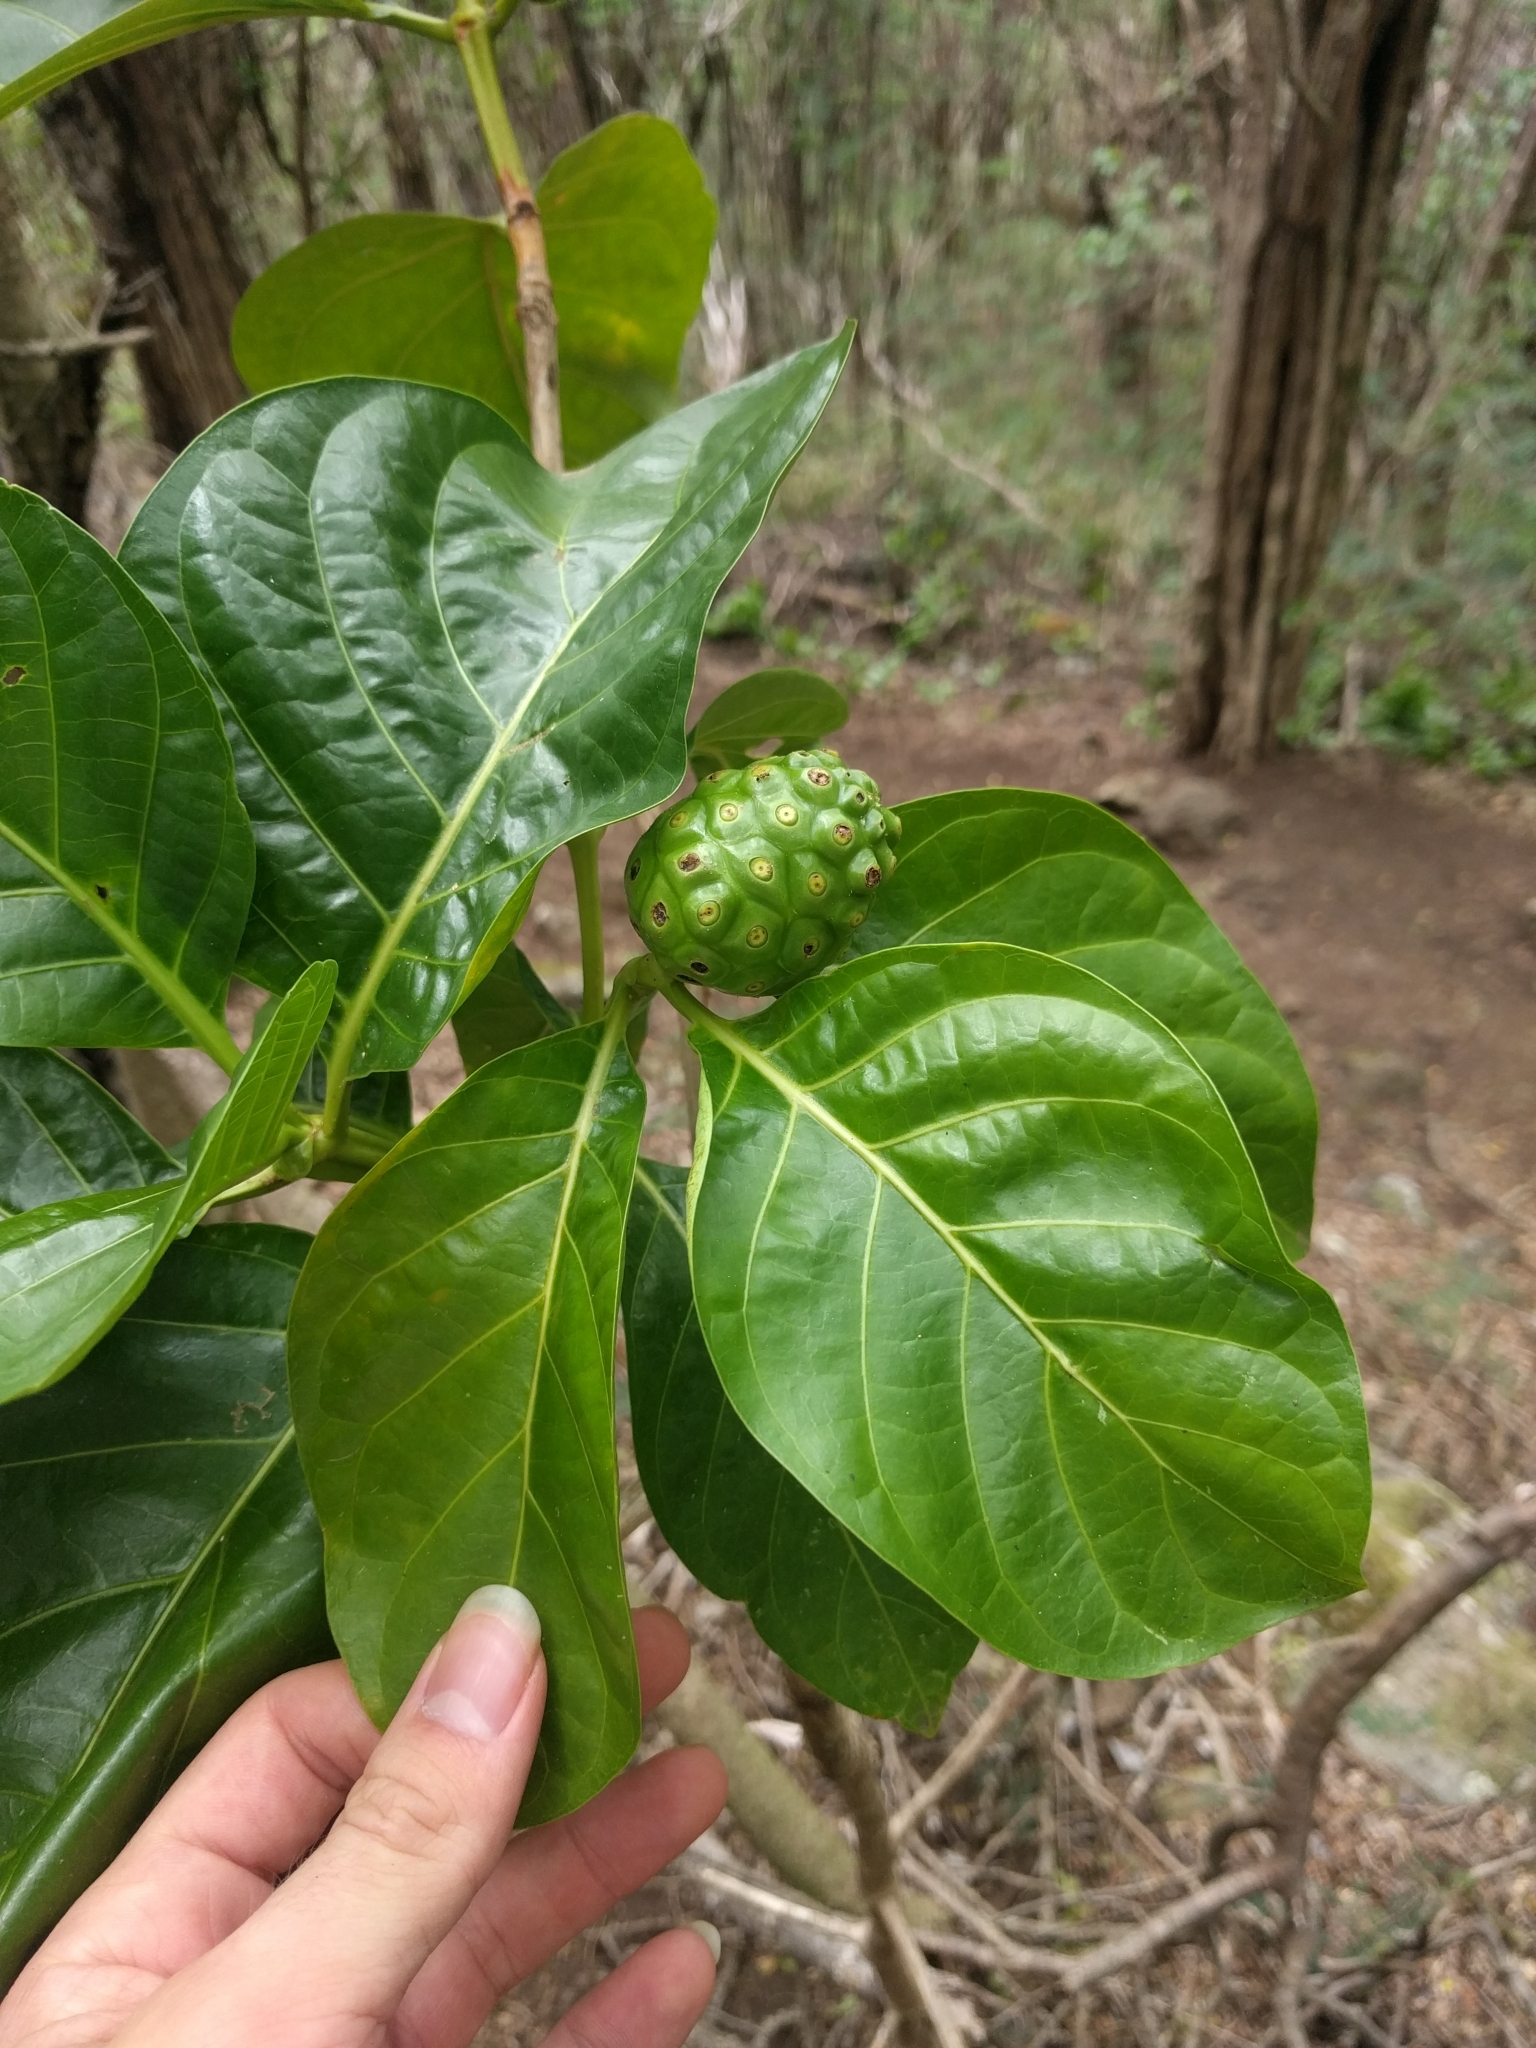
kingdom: Plantae
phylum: Tracheophyta
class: Magnoliopsida
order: Gentianales
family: Rubiaceae
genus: Morinda
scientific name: Morinda citrifolia
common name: Indian-mulberry
